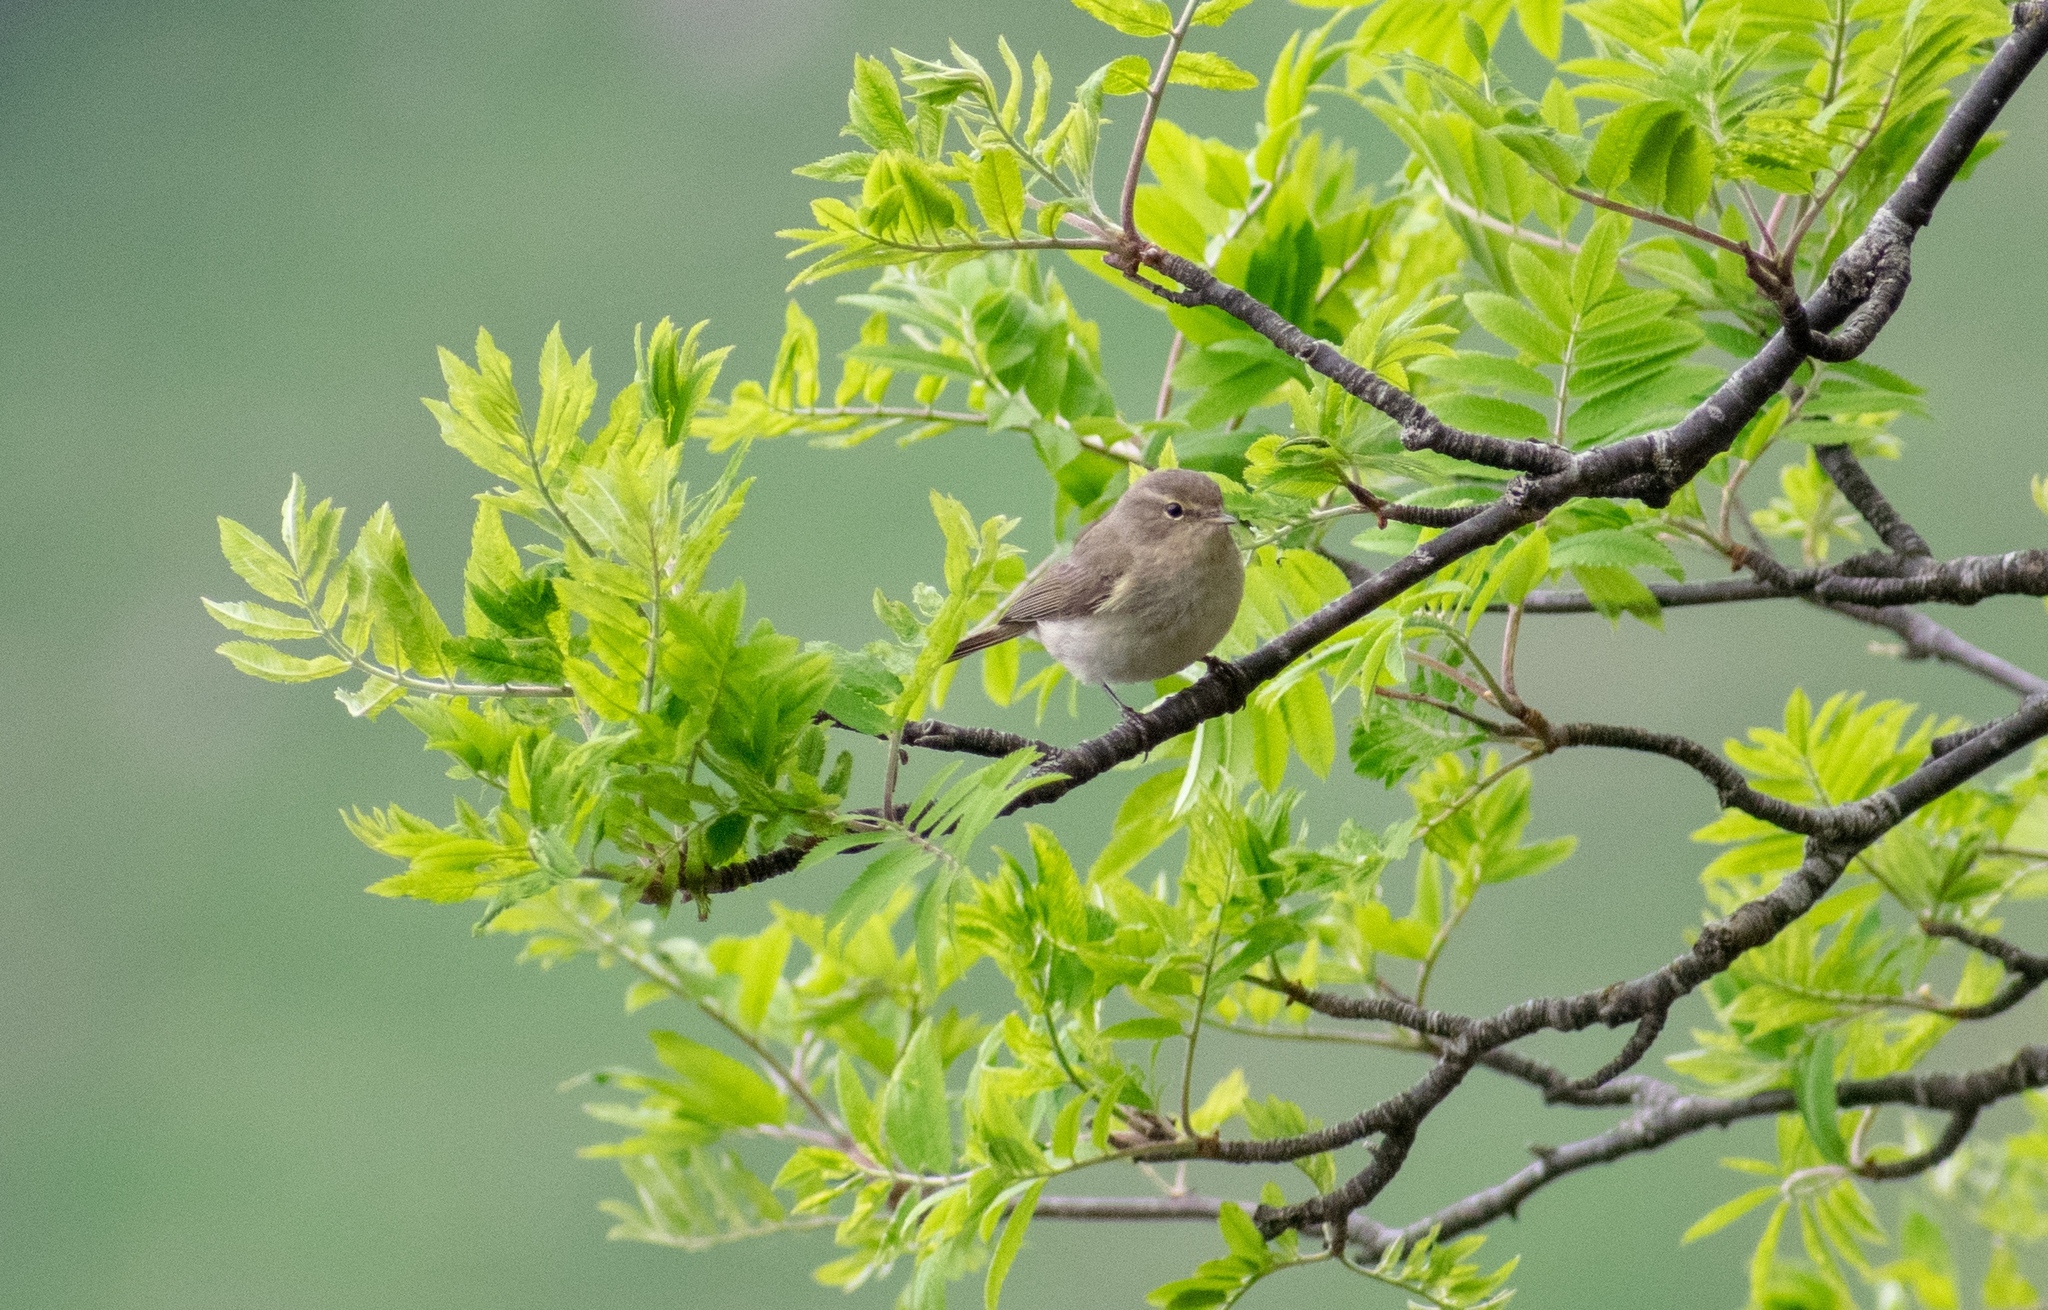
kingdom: Animalia
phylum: Chordata
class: Aves
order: Passeriformes
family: Phylloscopidae
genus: Phylloscopus
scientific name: Phylloscopus collybita
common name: Common chiffchaff
